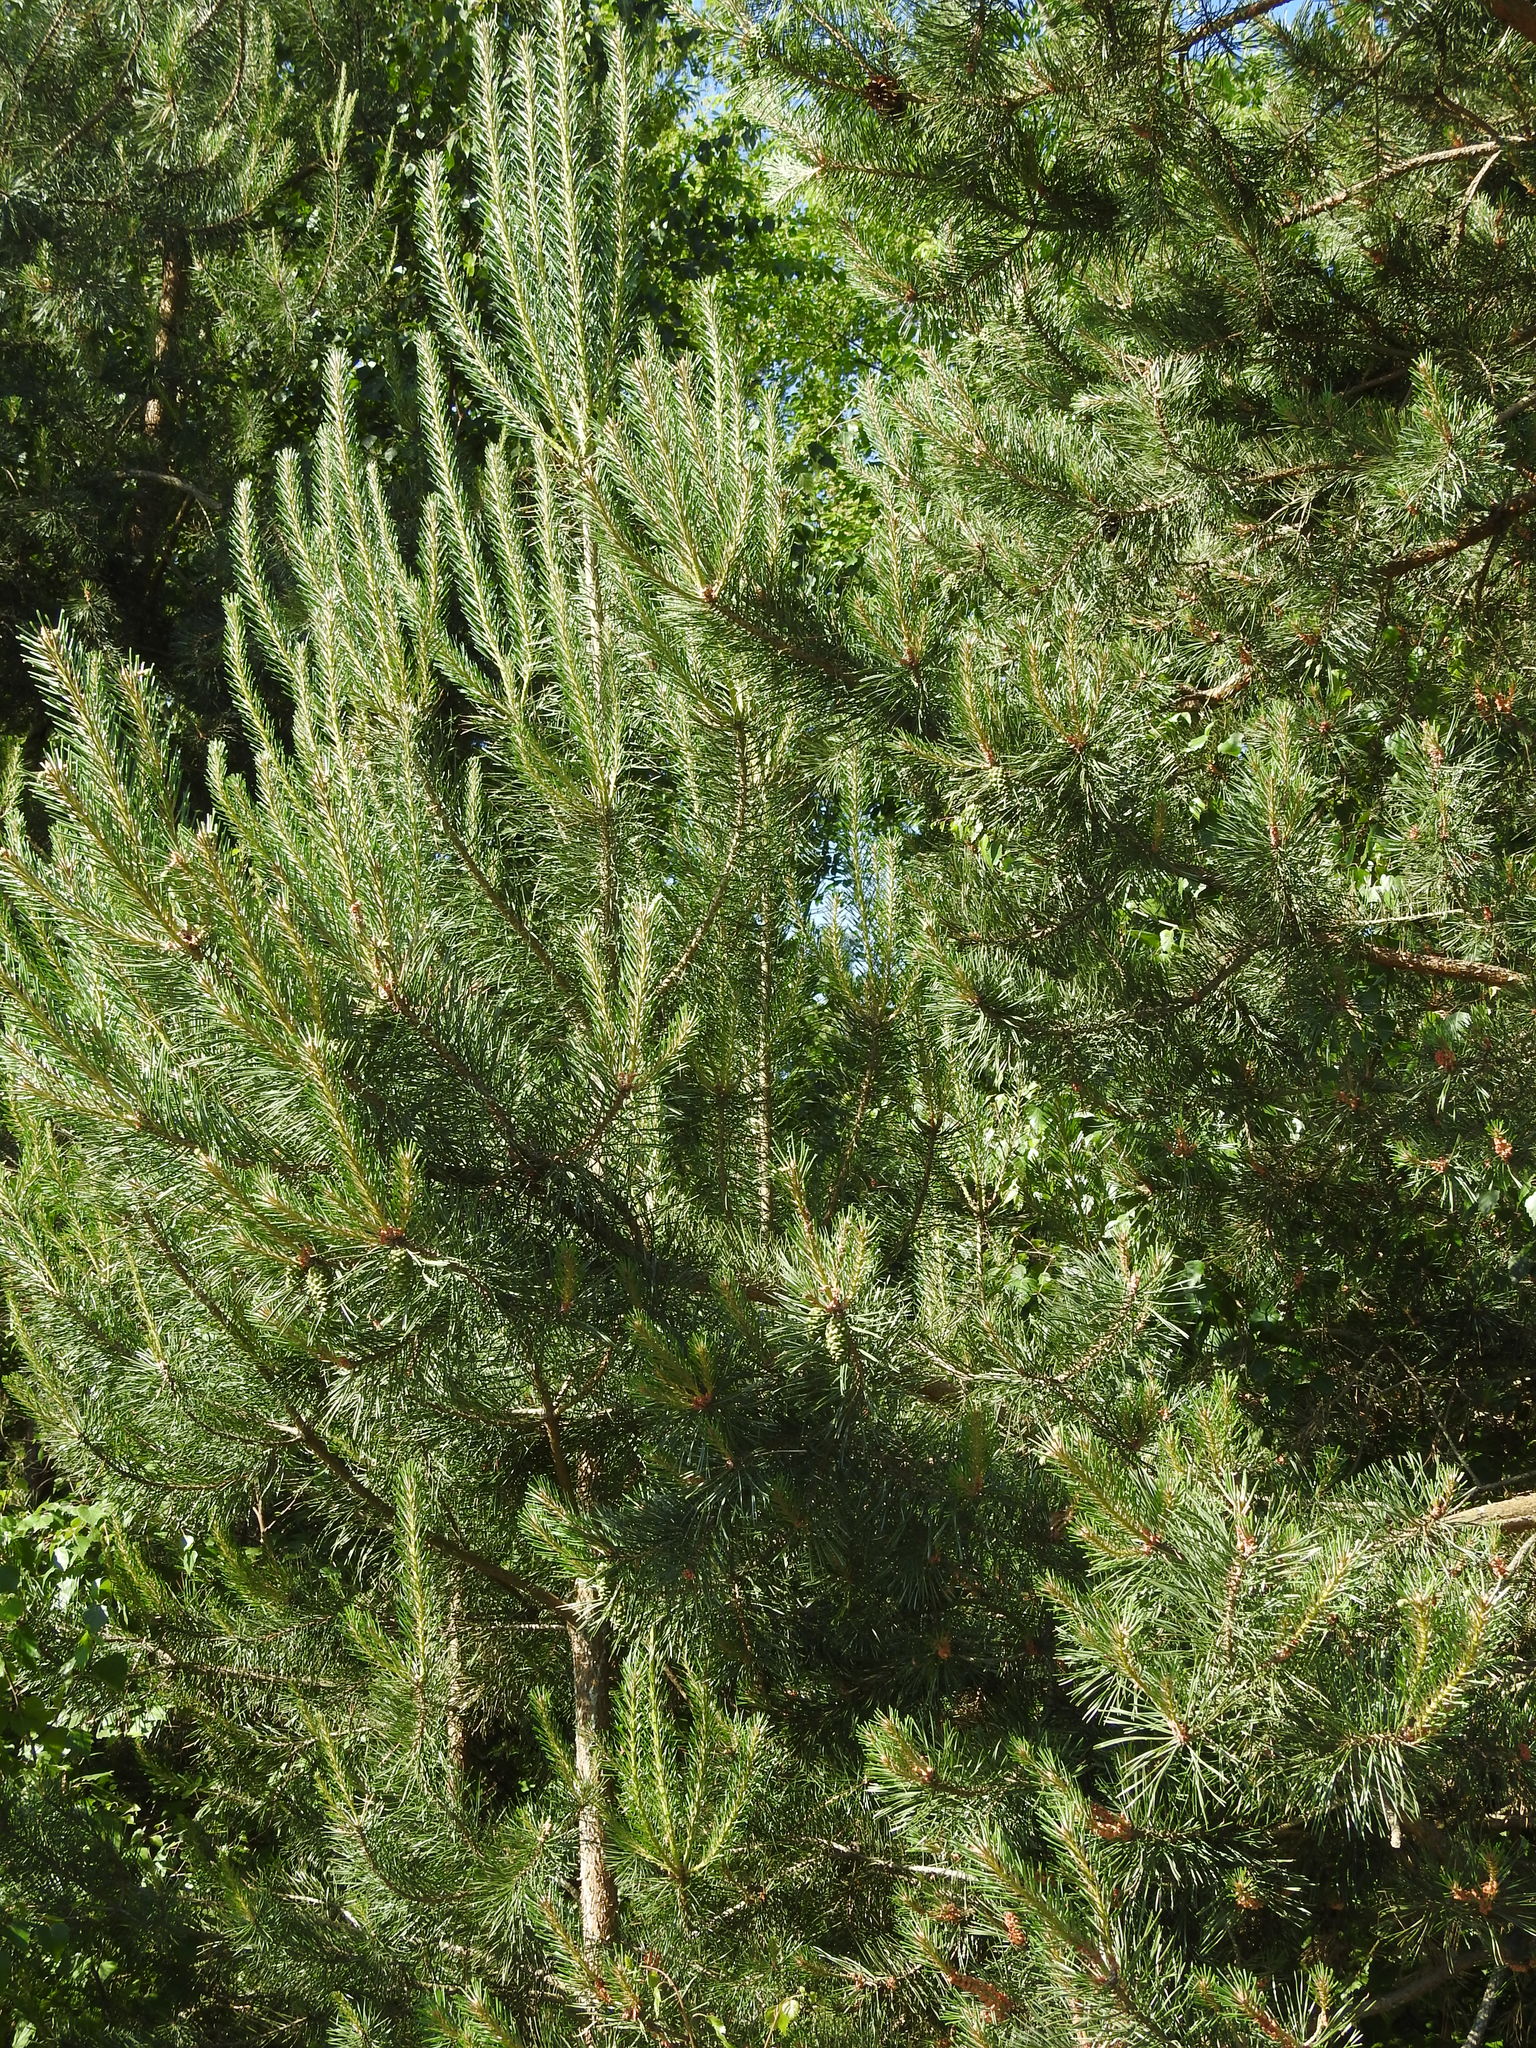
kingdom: Plantae
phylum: Tracheophyta
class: Pinopsida
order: Pinales
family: Pinaceae
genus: Pinus
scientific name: Pinus sylvestris
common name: Scots pine
